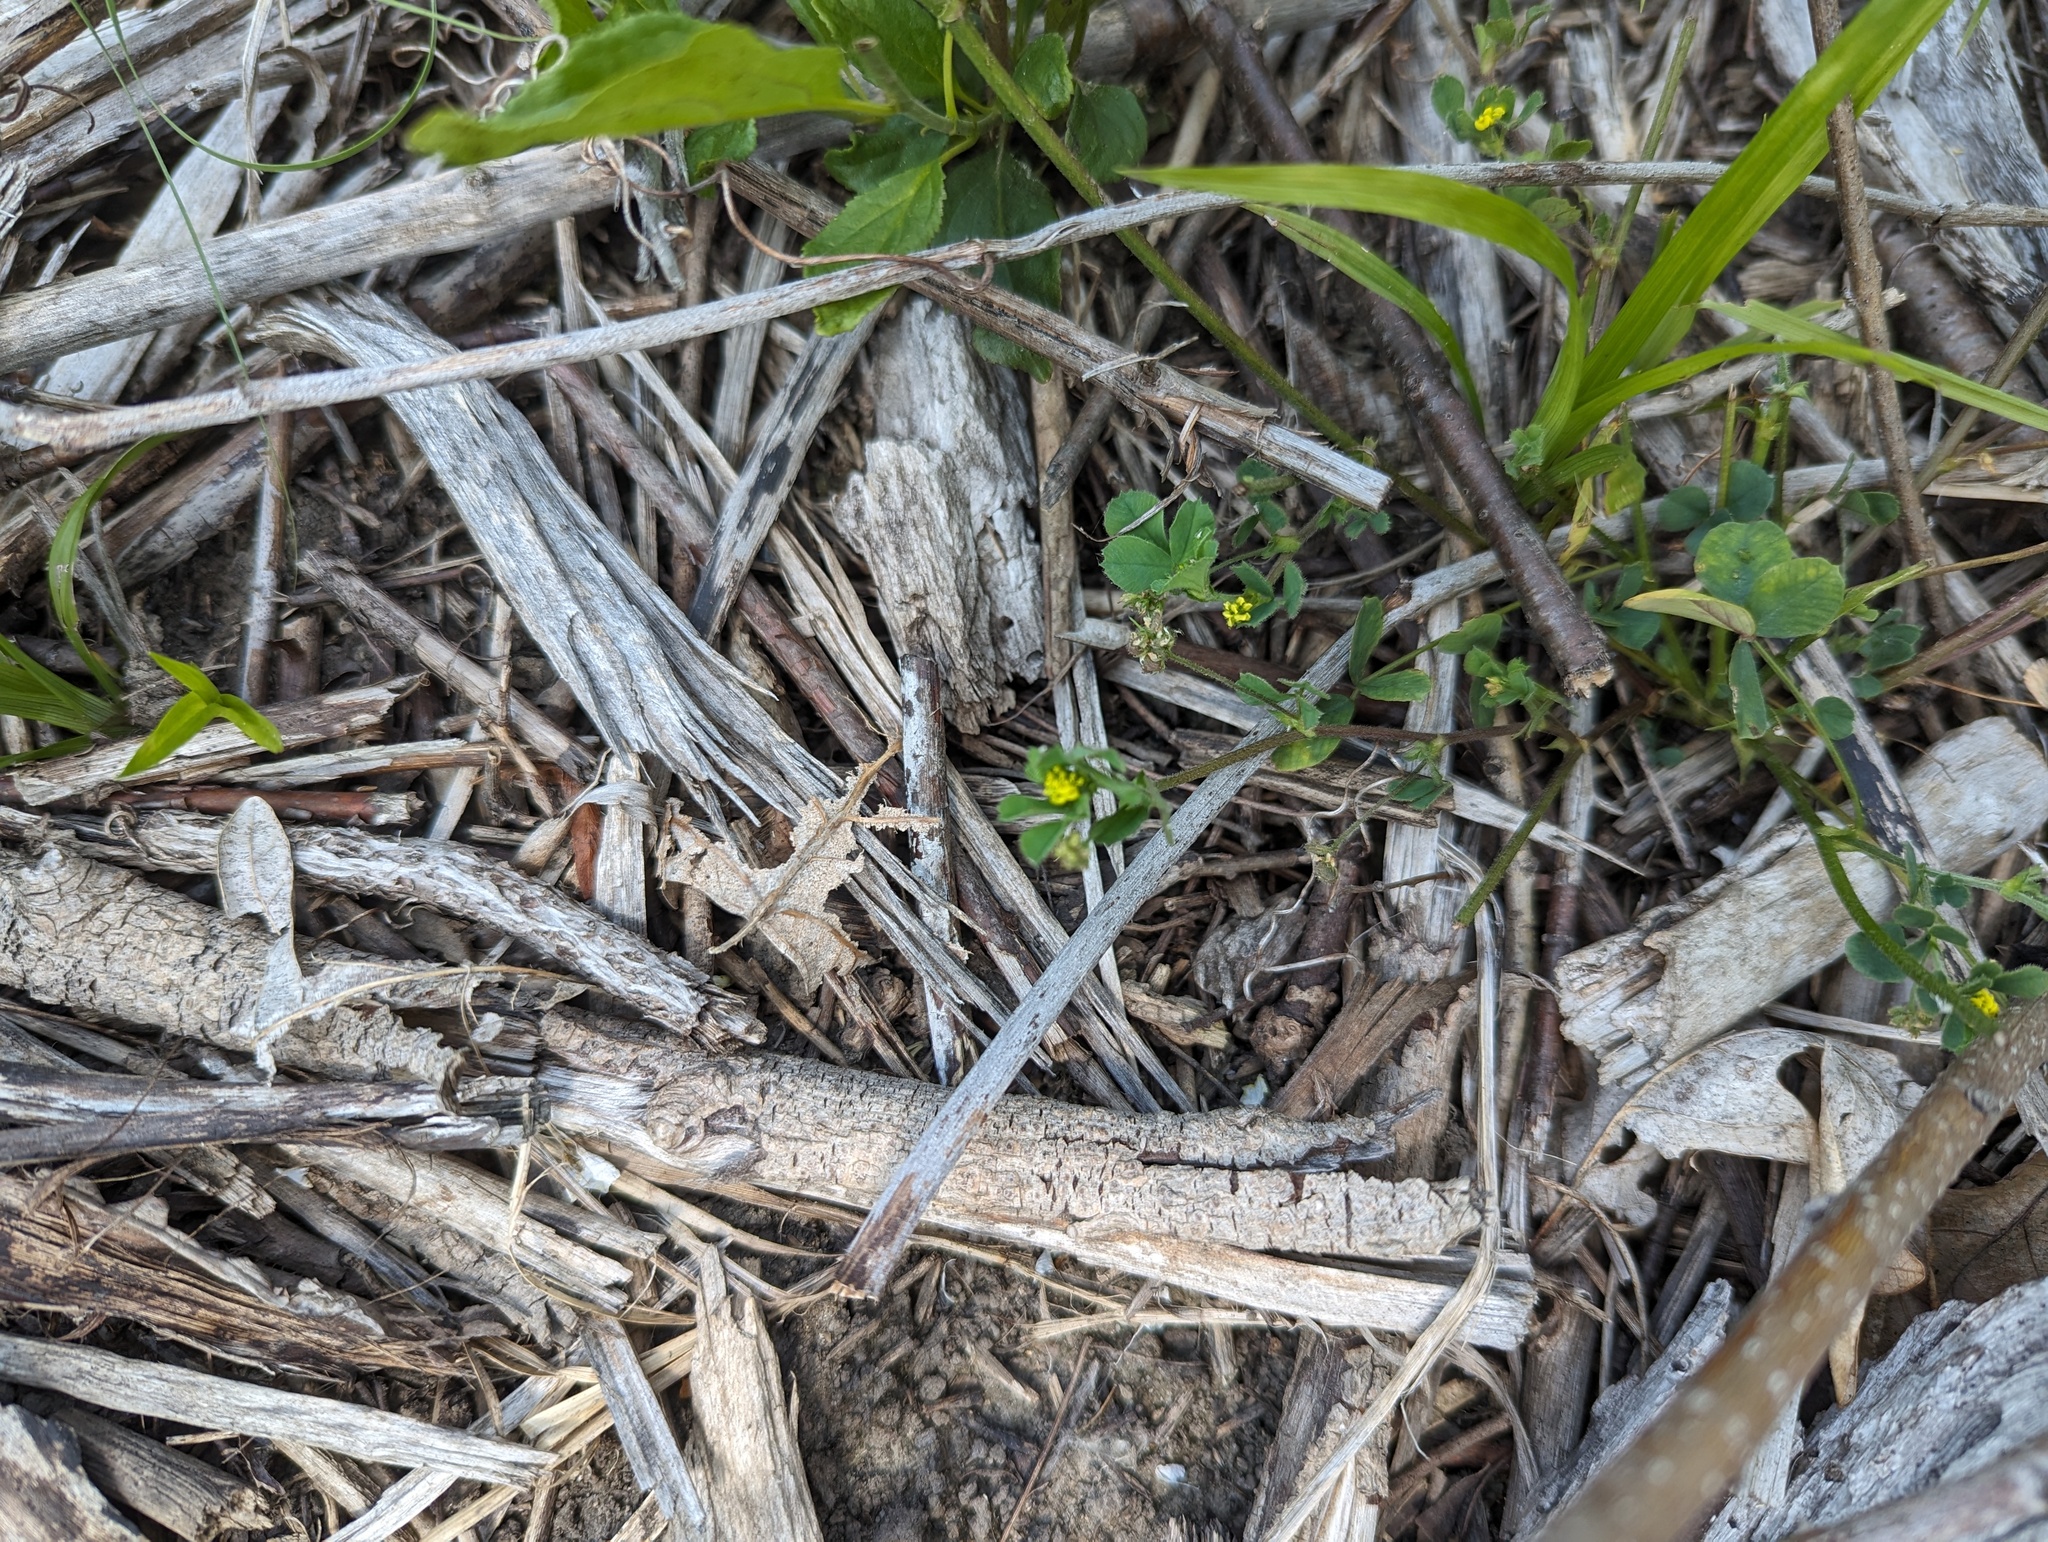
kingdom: Plantae
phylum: Tracheophyta
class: Magnoliopsida
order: Fabales
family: Fabaceae
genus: Medicago
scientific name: Medicago lupulina
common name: Black medick
